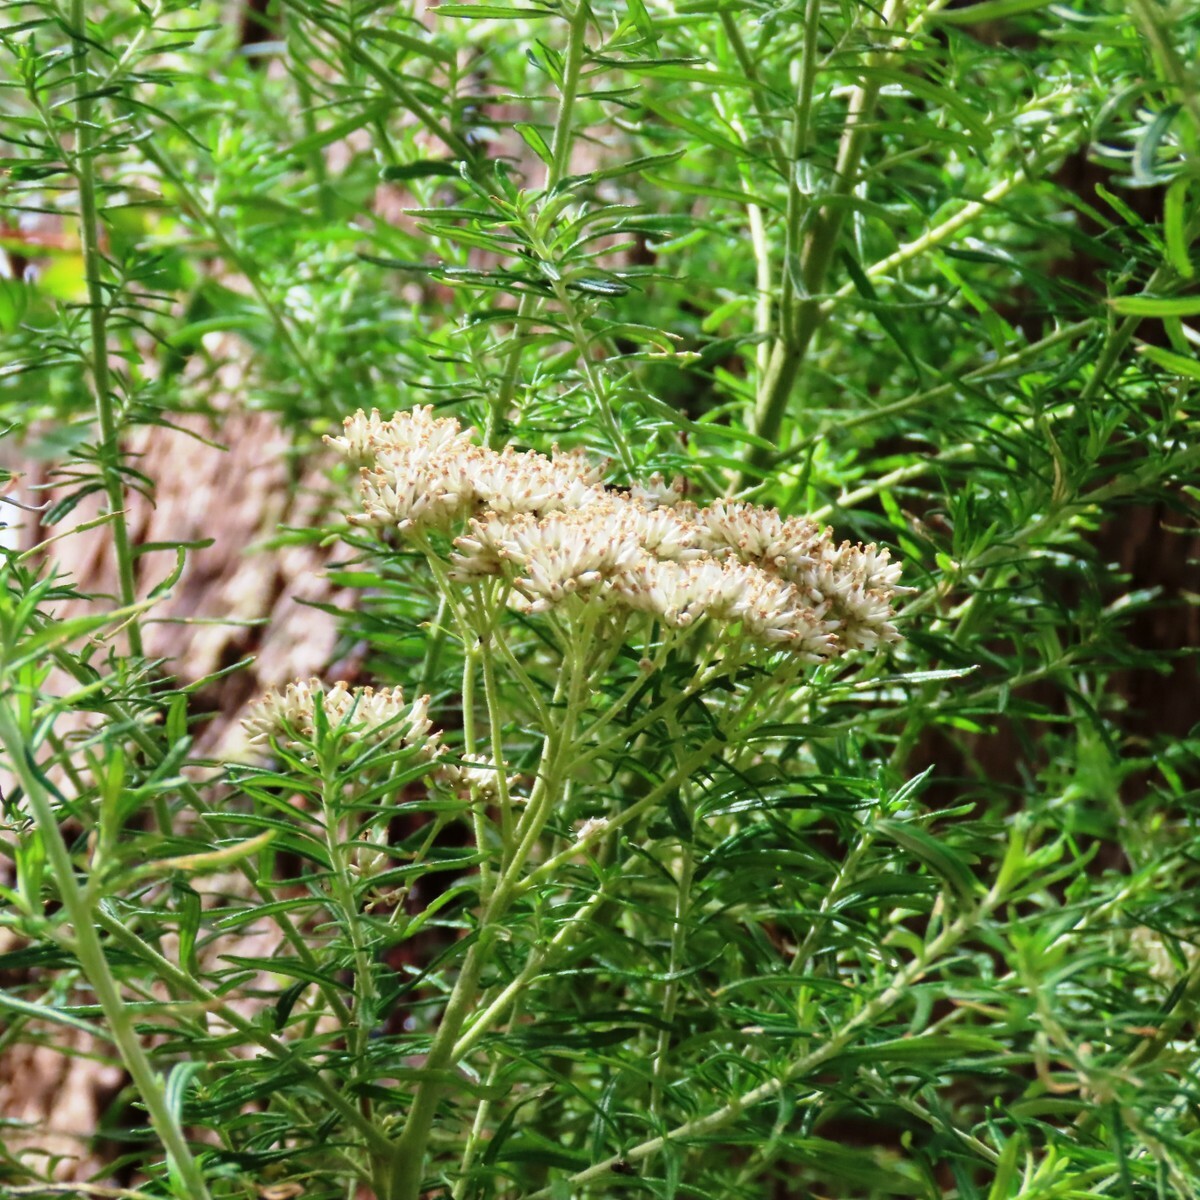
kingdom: Plantae
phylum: Tracheophyta
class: Magnoliopsida
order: Asterales
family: Asteraceae
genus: Cassinia
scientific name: Cassinia aculeata
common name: Australian tauhinu
